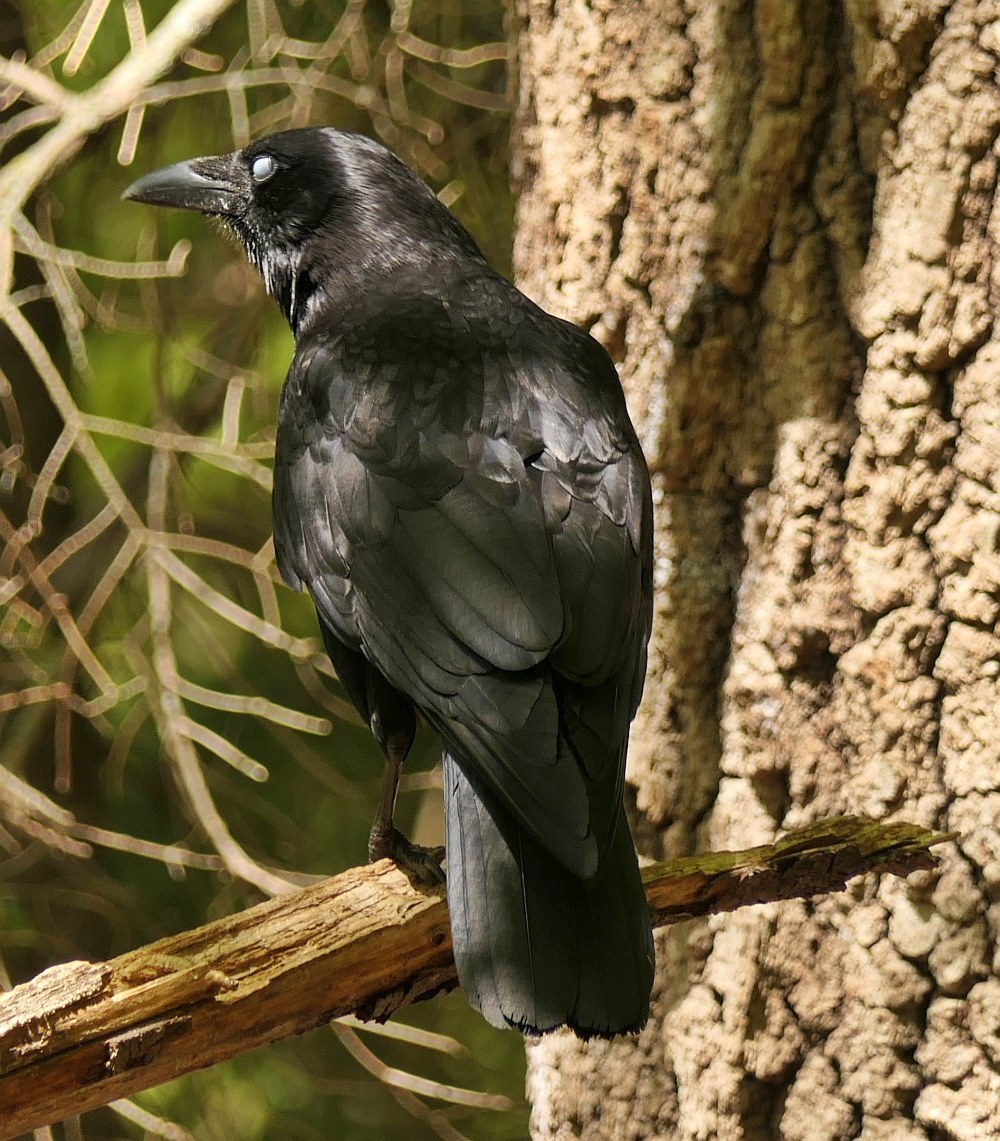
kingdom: Animalia
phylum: Chordata
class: Aves
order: Passeriformes
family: Corvidae
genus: Corvus
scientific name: Corvus brachyrhynchos
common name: American crow
